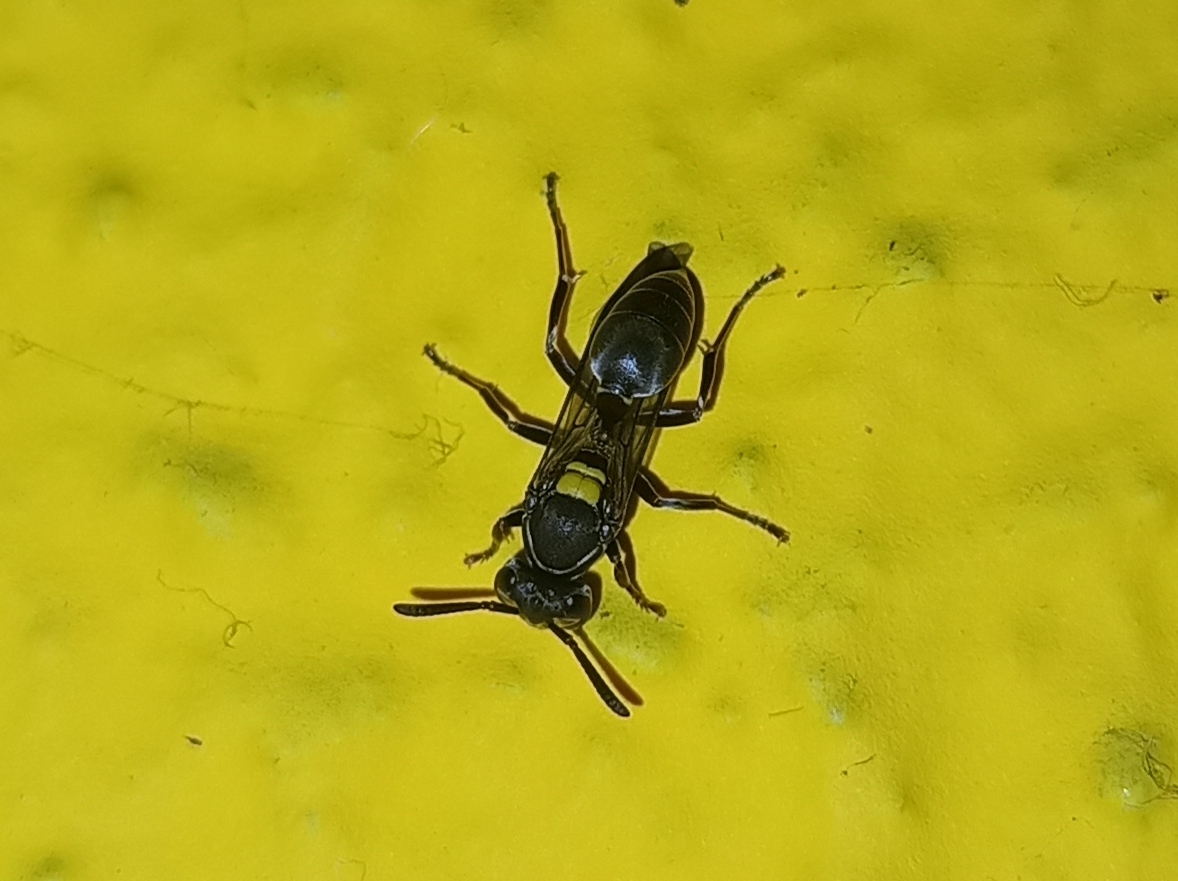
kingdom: Animalia
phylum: Arthropoda
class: Insecta
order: Hymenoptera
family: Eumenidae
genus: Polybia
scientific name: Polybia paulista
